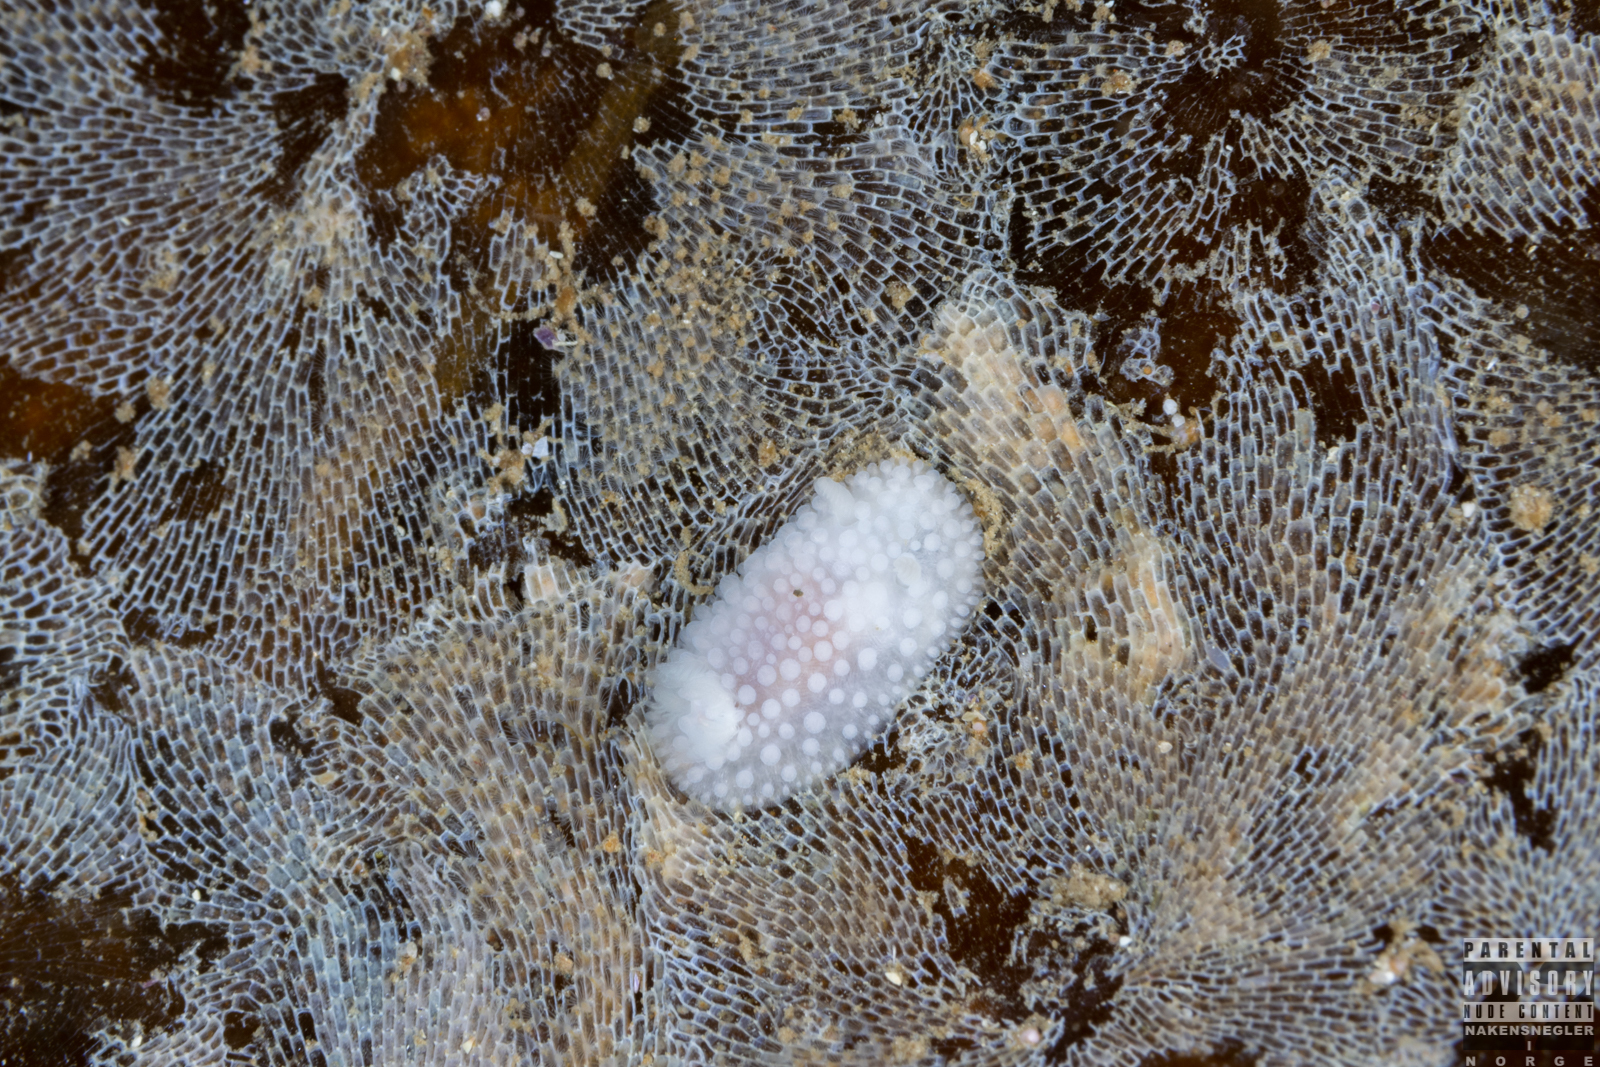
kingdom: Animalia
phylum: Mollusca
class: Gastropoda
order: Nudibranchia
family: Onchidorididae
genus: Onchidoris
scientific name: Onchidoris muricata
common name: Rough doris
